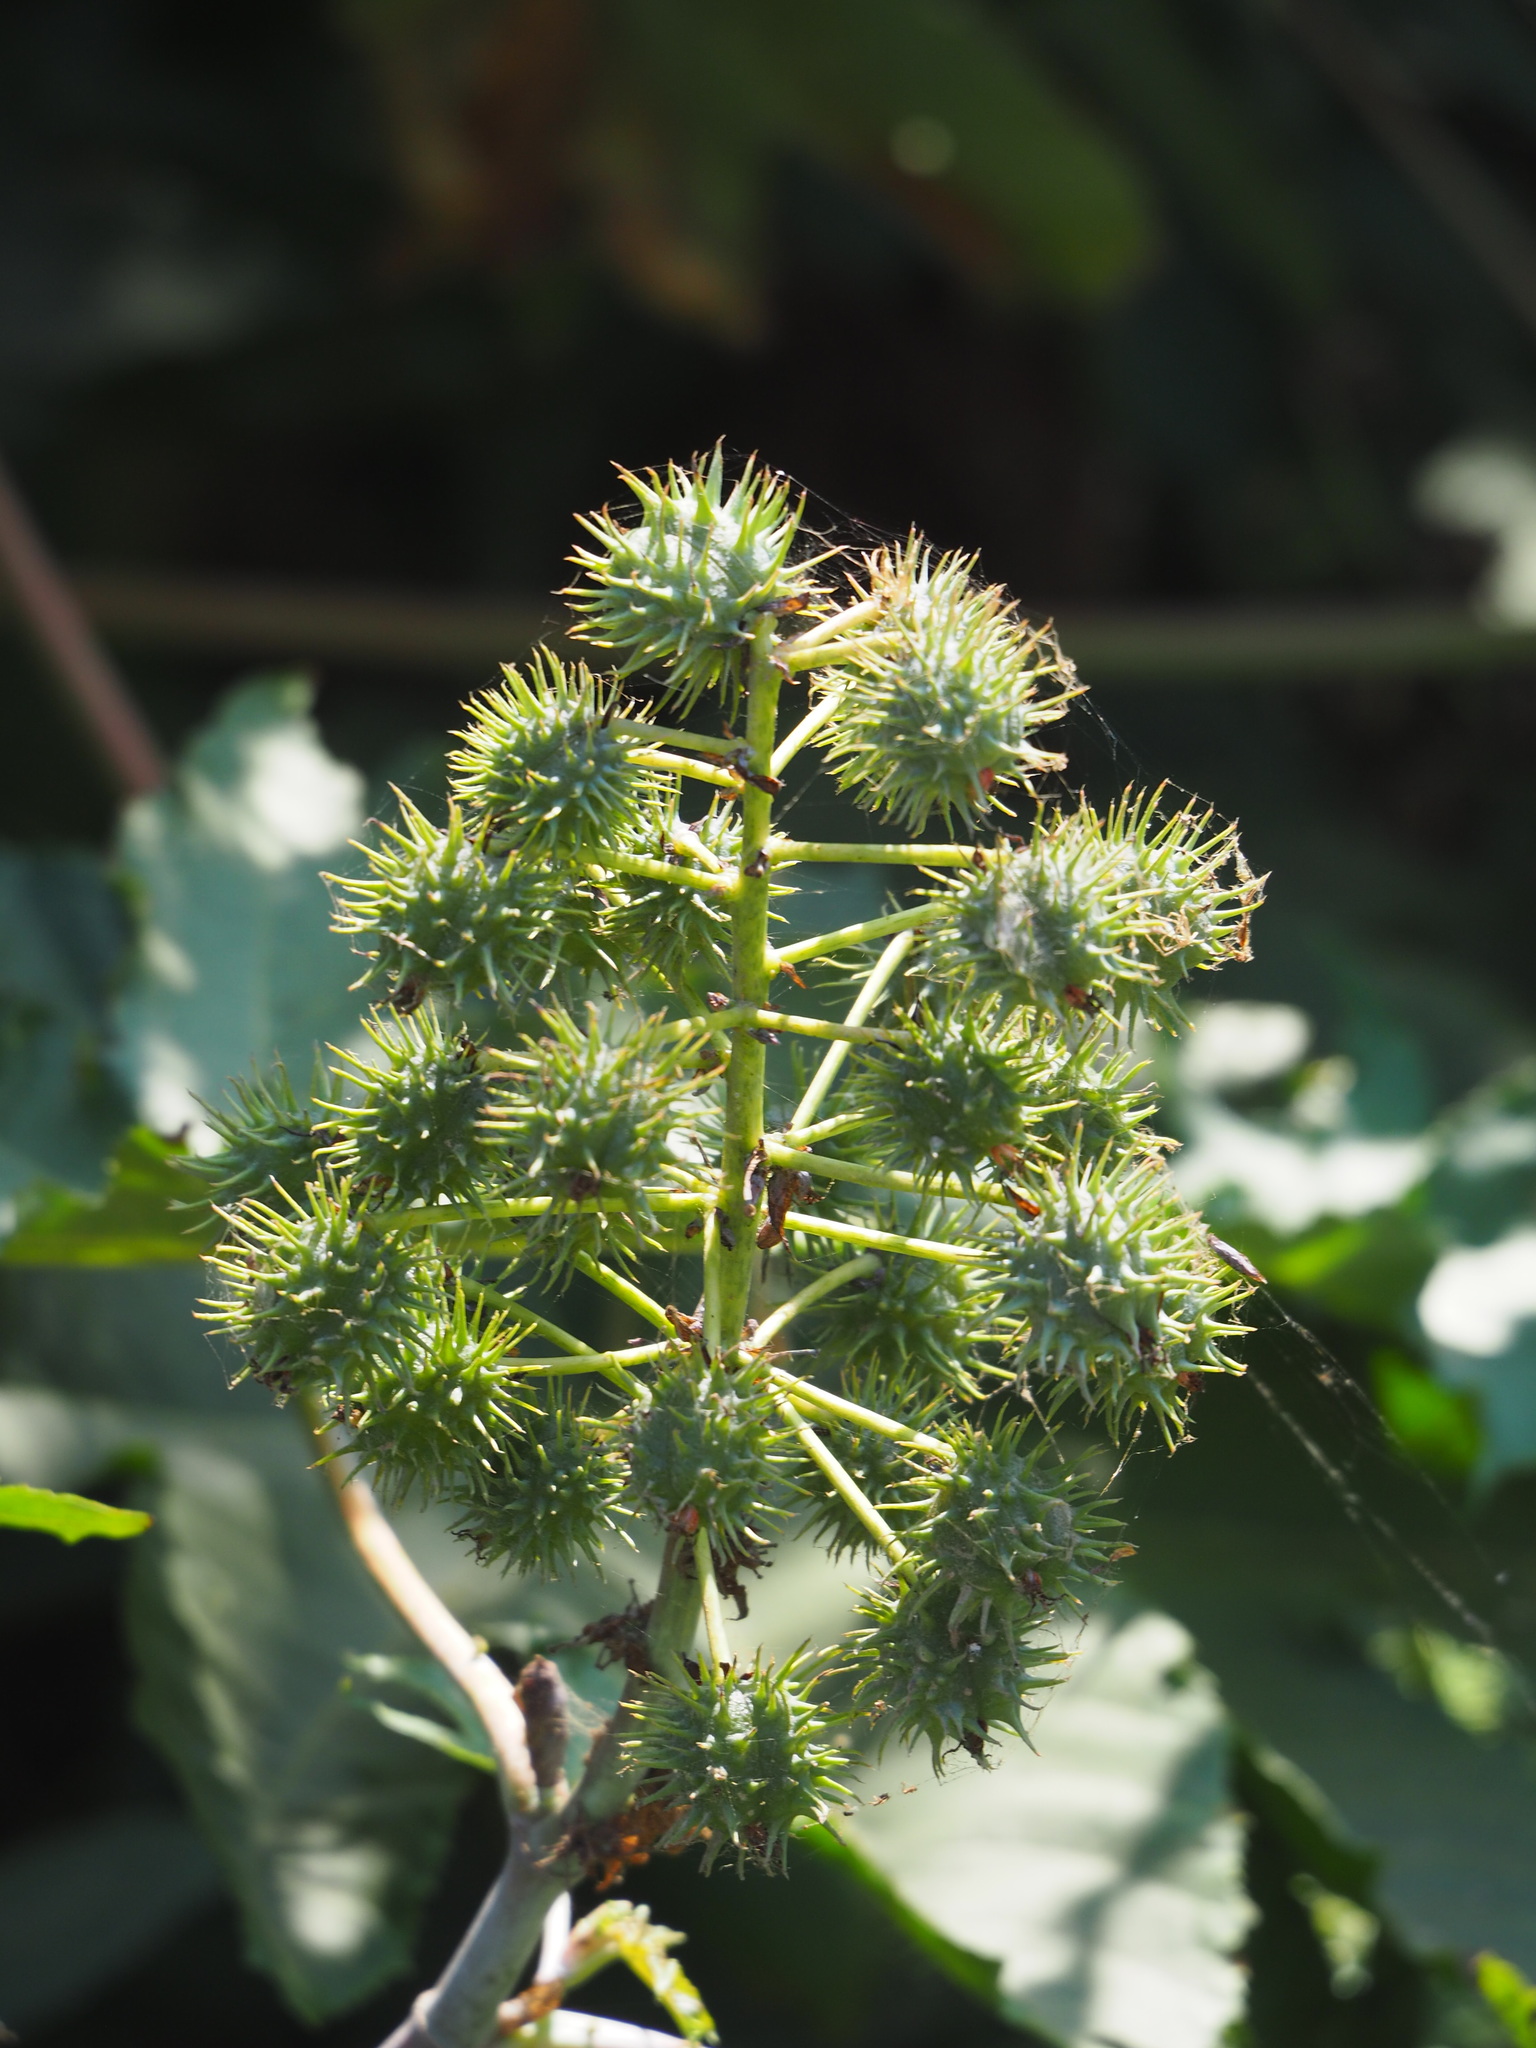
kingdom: Plantae
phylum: Tracheophyta
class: Magnoliopsida
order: Malpighiales
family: Euphorbiaceae
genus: Ricinus
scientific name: Ricinus communis
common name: Castor-oil-plant
